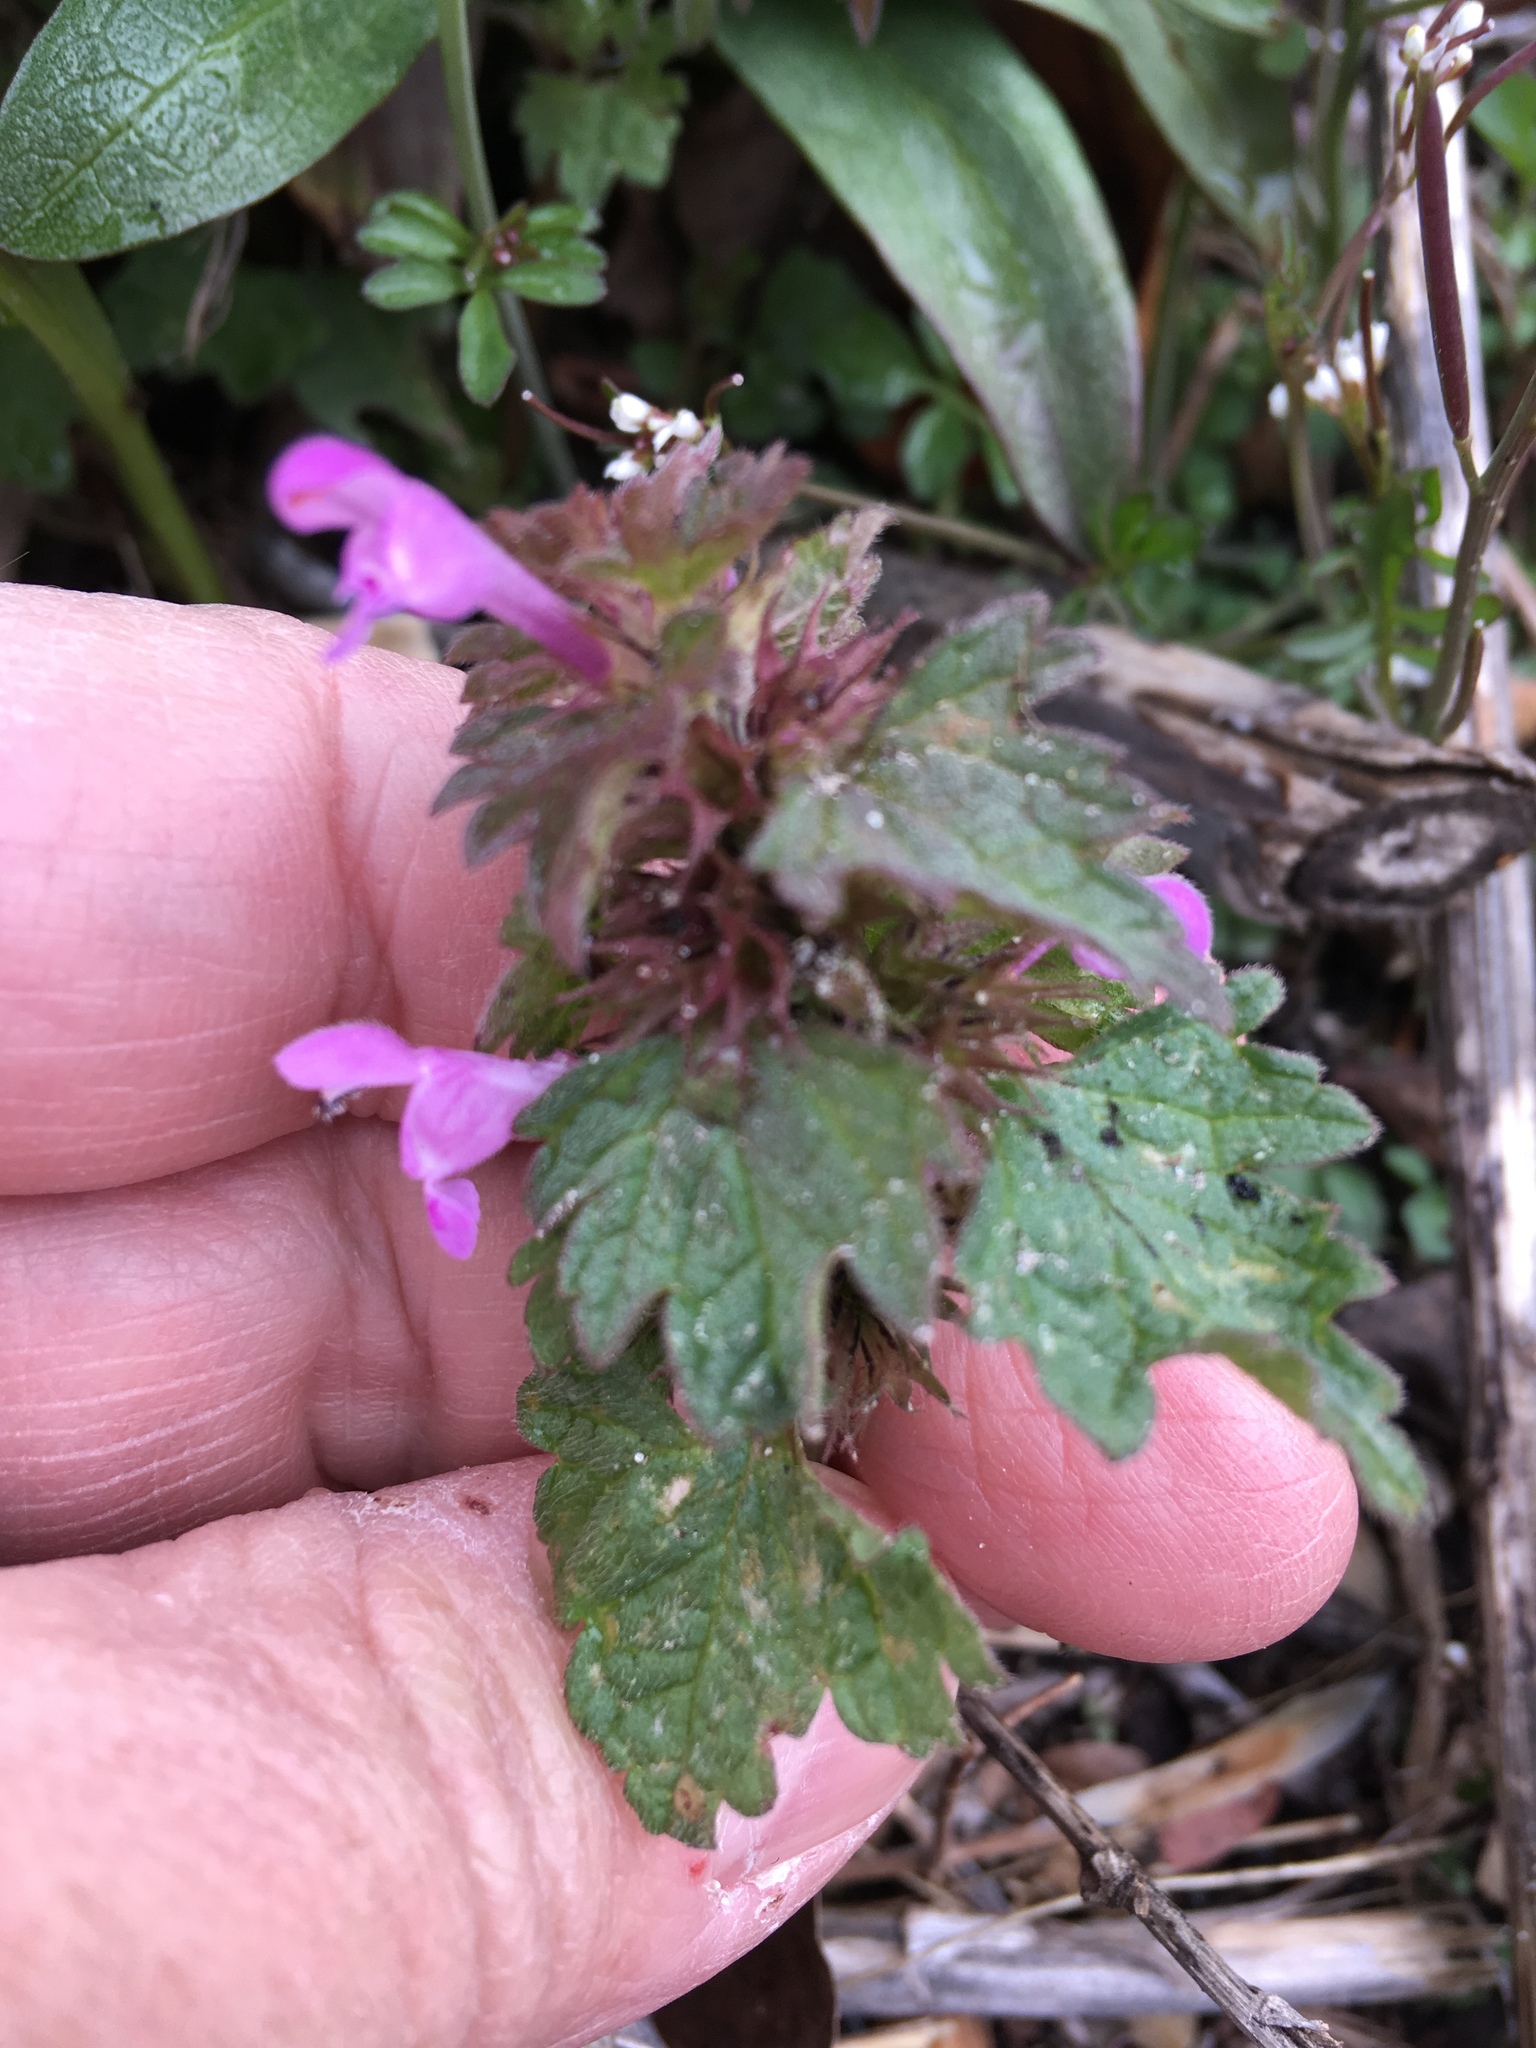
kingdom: Plantae
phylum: Tracheophyta
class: Magnoliopsida
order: Lamiales
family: Lamiaceae
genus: Lamium
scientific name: Lamium hybridum
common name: Cut-leaved dead-nettle
